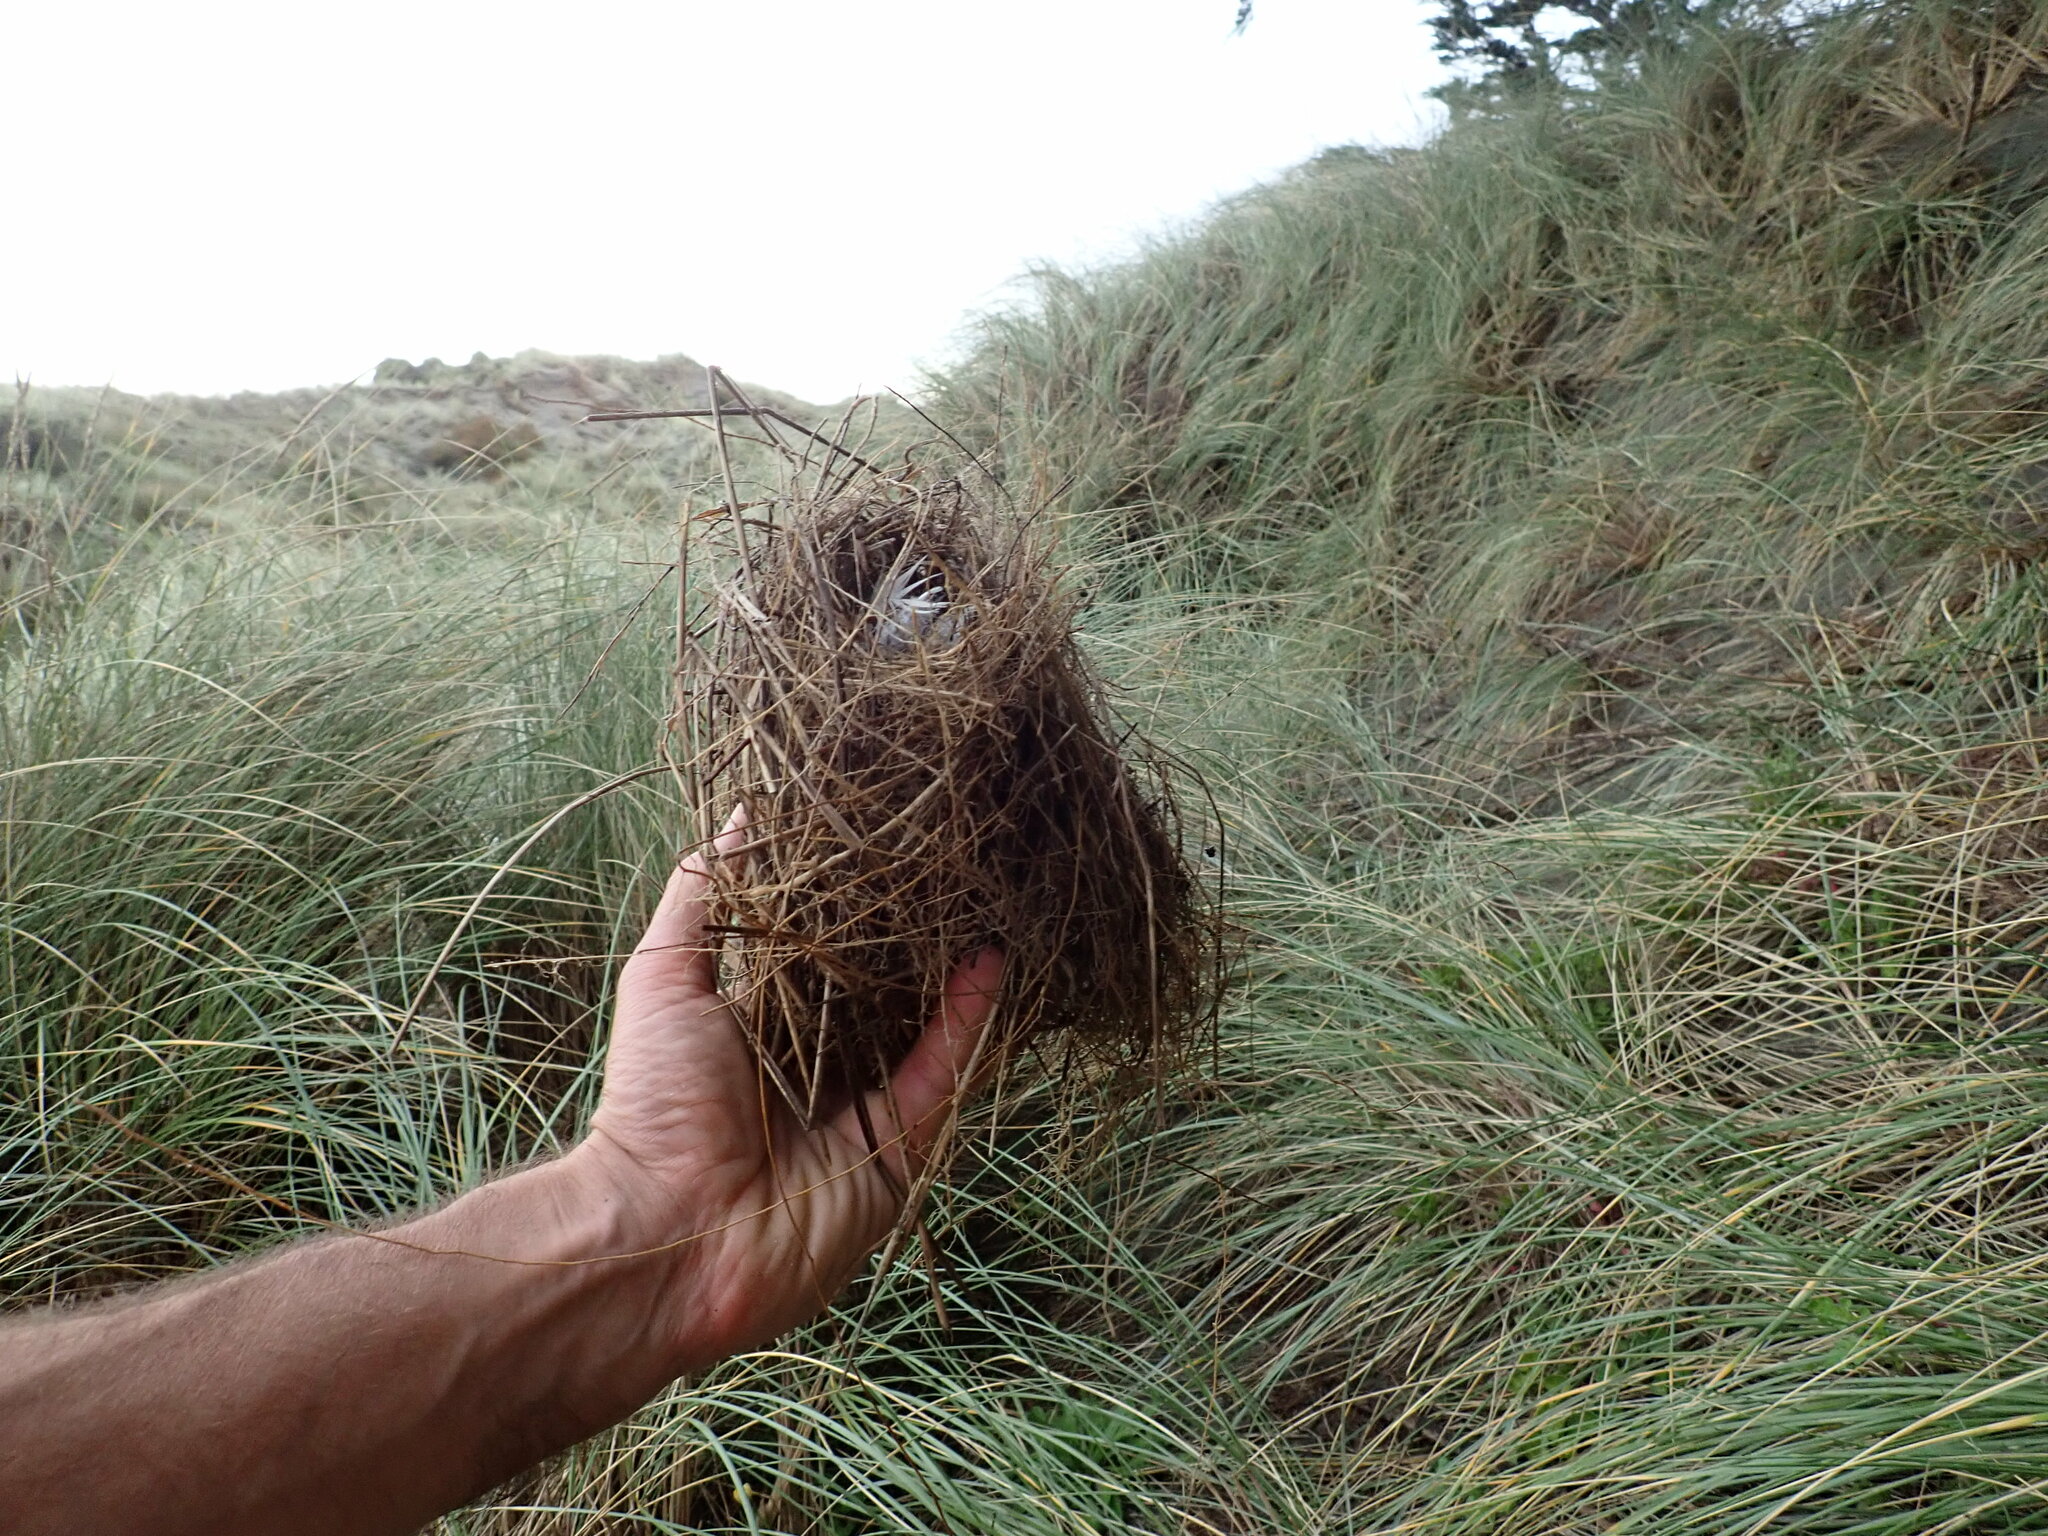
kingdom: Animalia
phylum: Chordata
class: Aves
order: Passeriformes
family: Passeridae
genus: Passer
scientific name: Passer domesticus
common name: House sparrow
